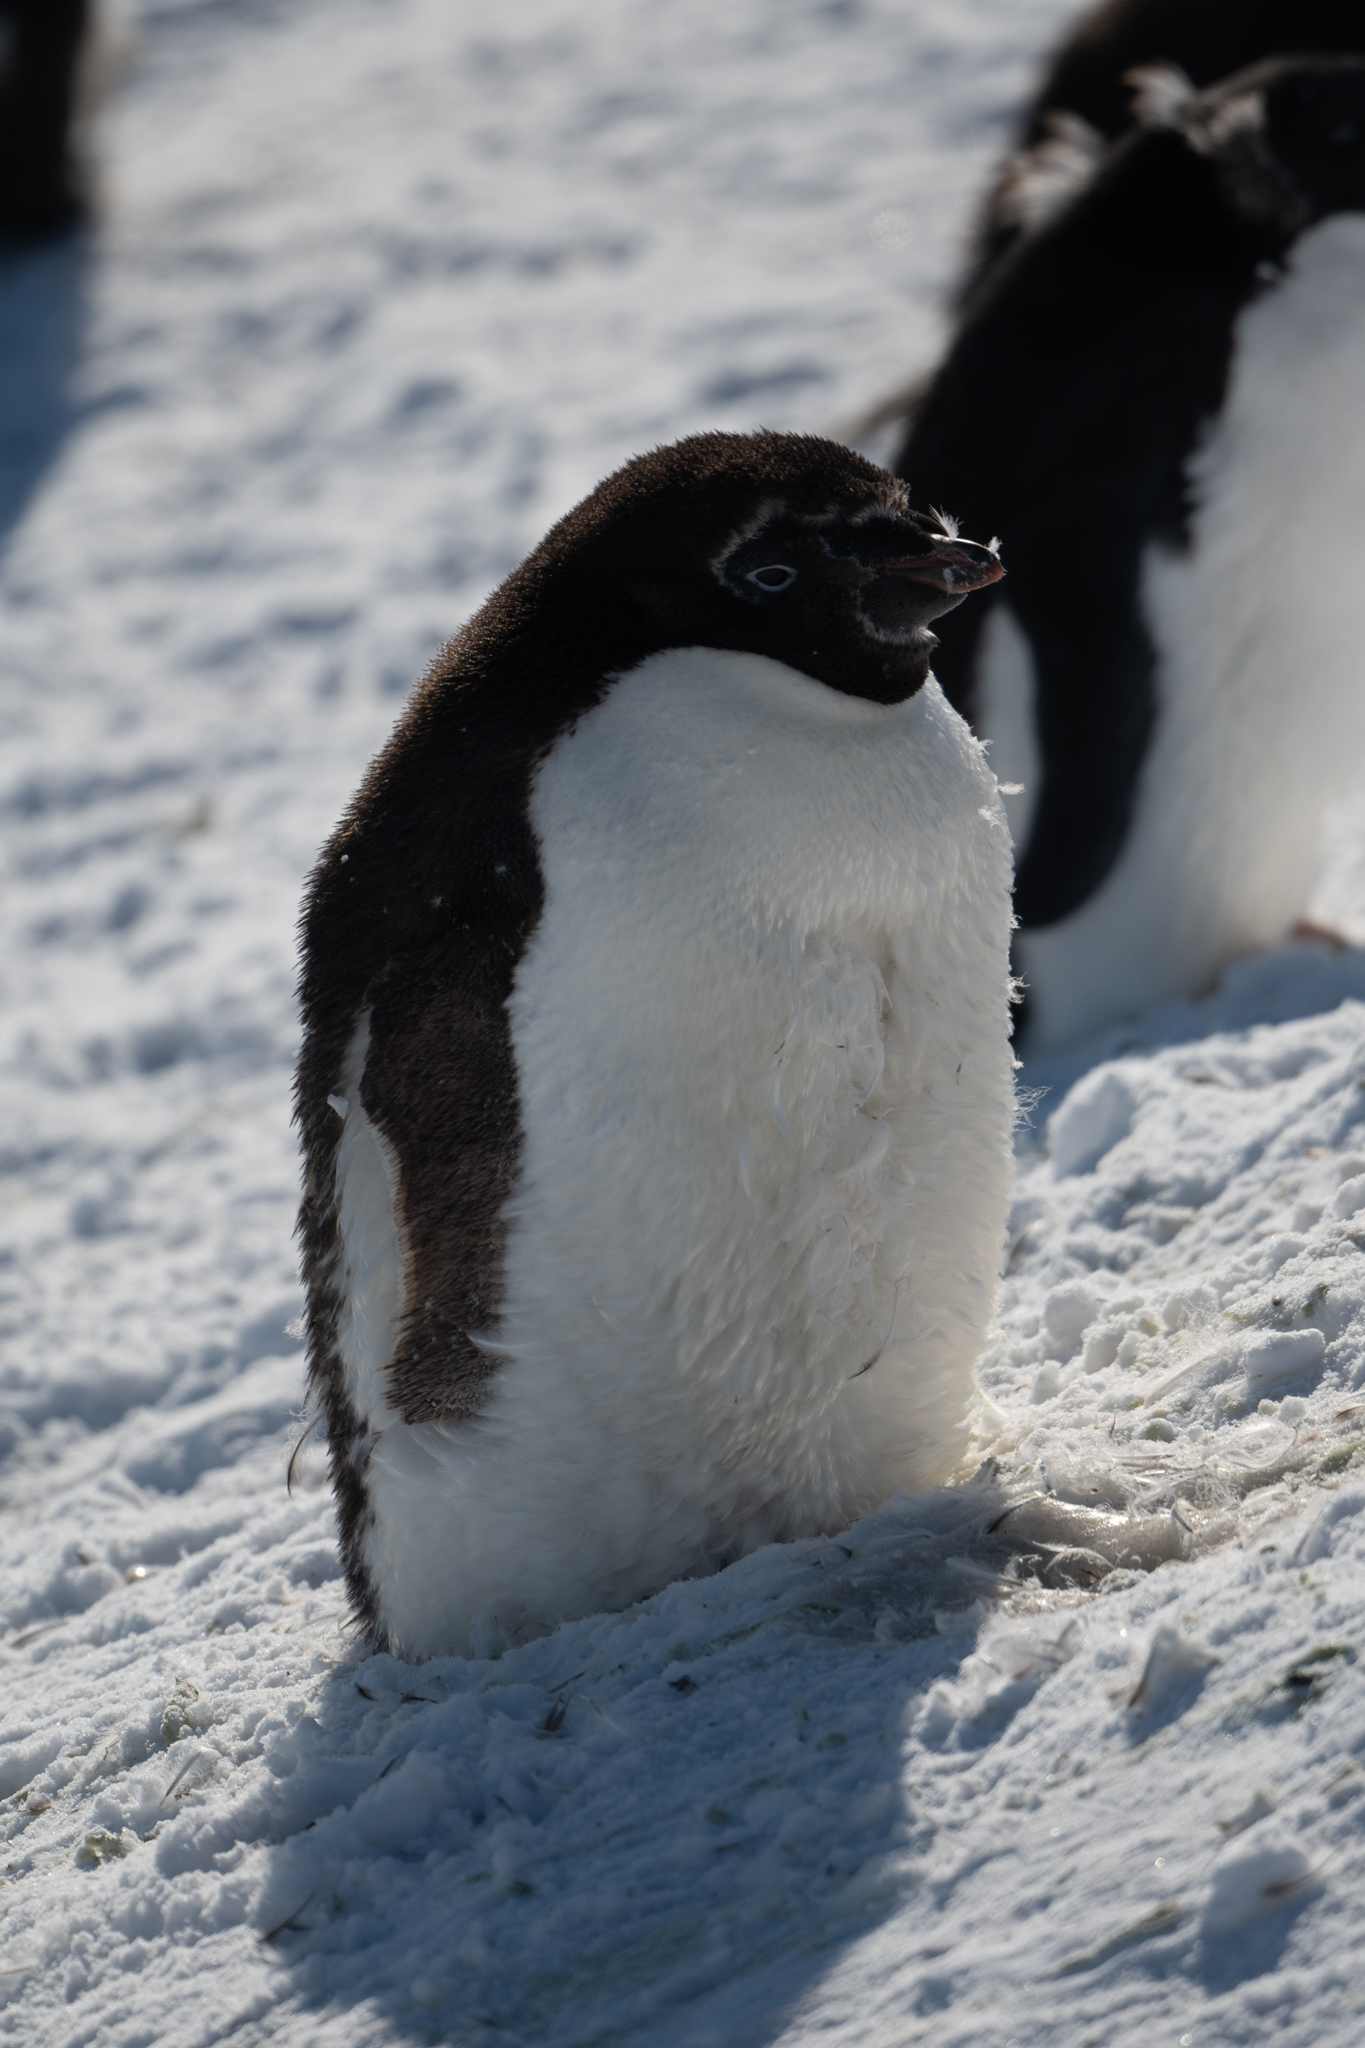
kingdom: Animalia
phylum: Chordata
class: Aves
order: Sphenisciformes
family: Spheniscidae
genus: Pygoscelis
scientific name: Pygoscelis adeliae
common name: Adelie penguin
